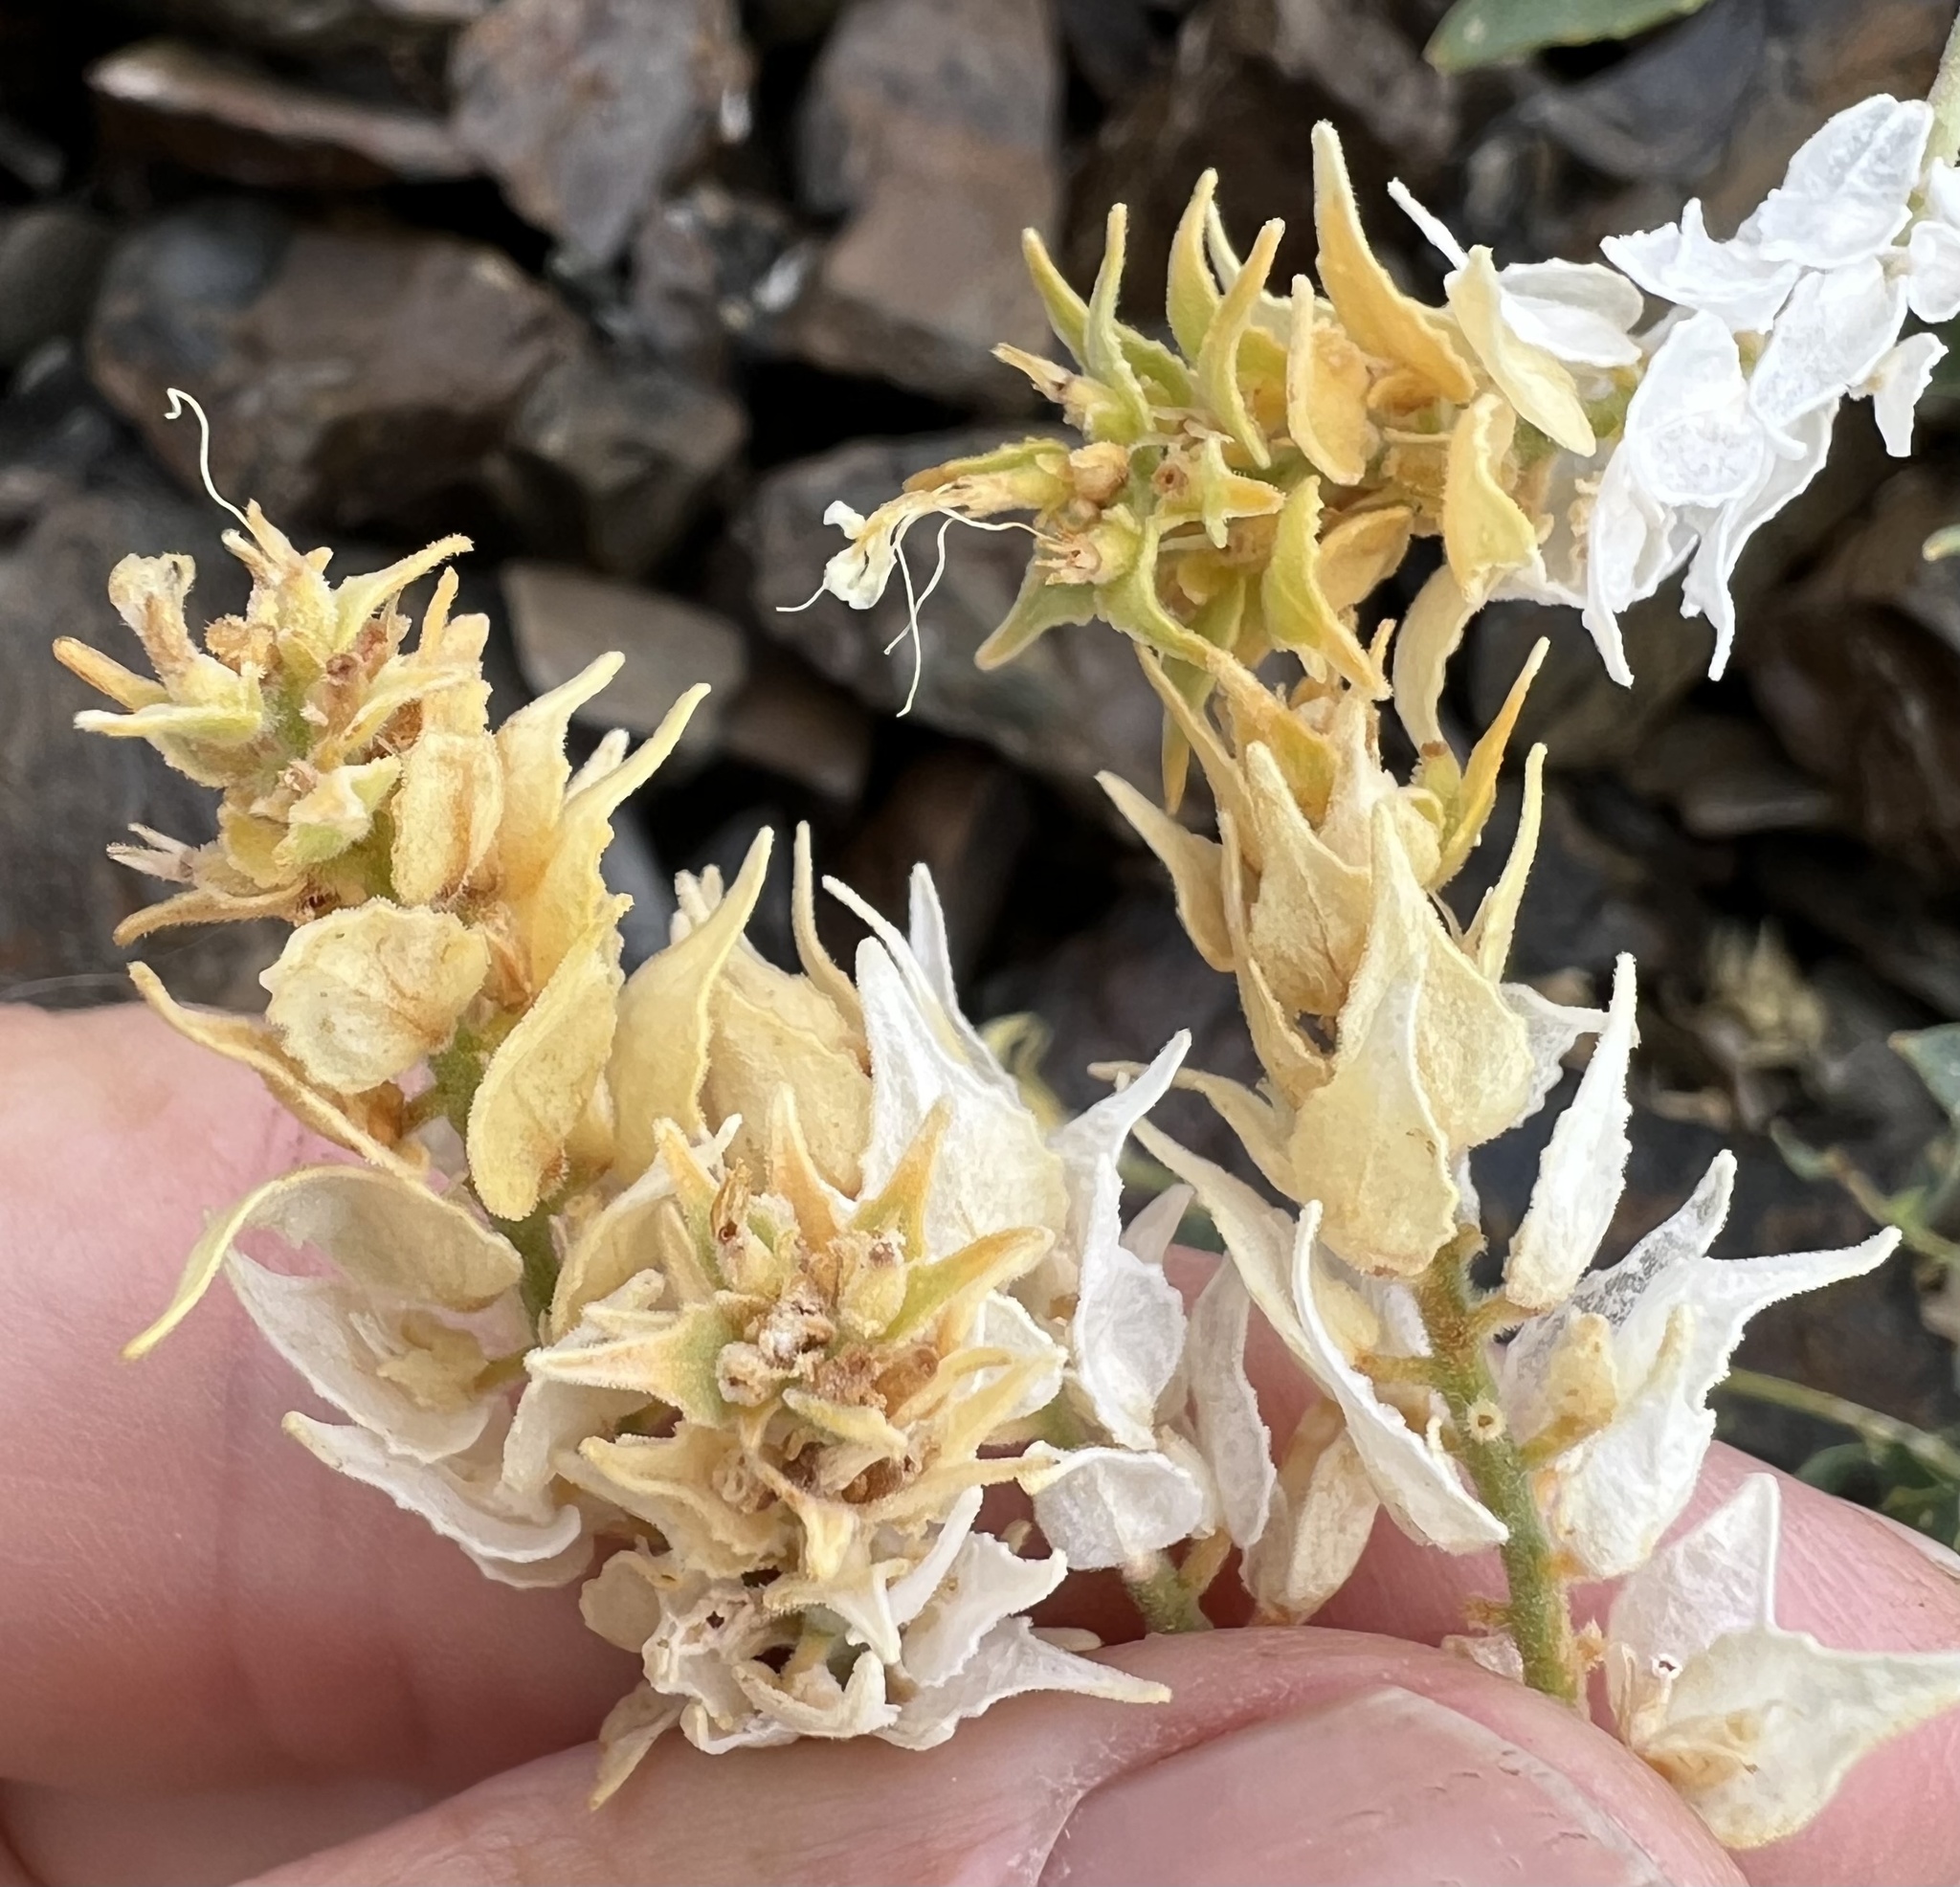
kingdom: Plantae
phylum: Tracheophyta
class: Magnoliopsida
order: Cornales
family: Loasaceae
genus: Petalonyx
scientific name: Petalonyx nitidus
